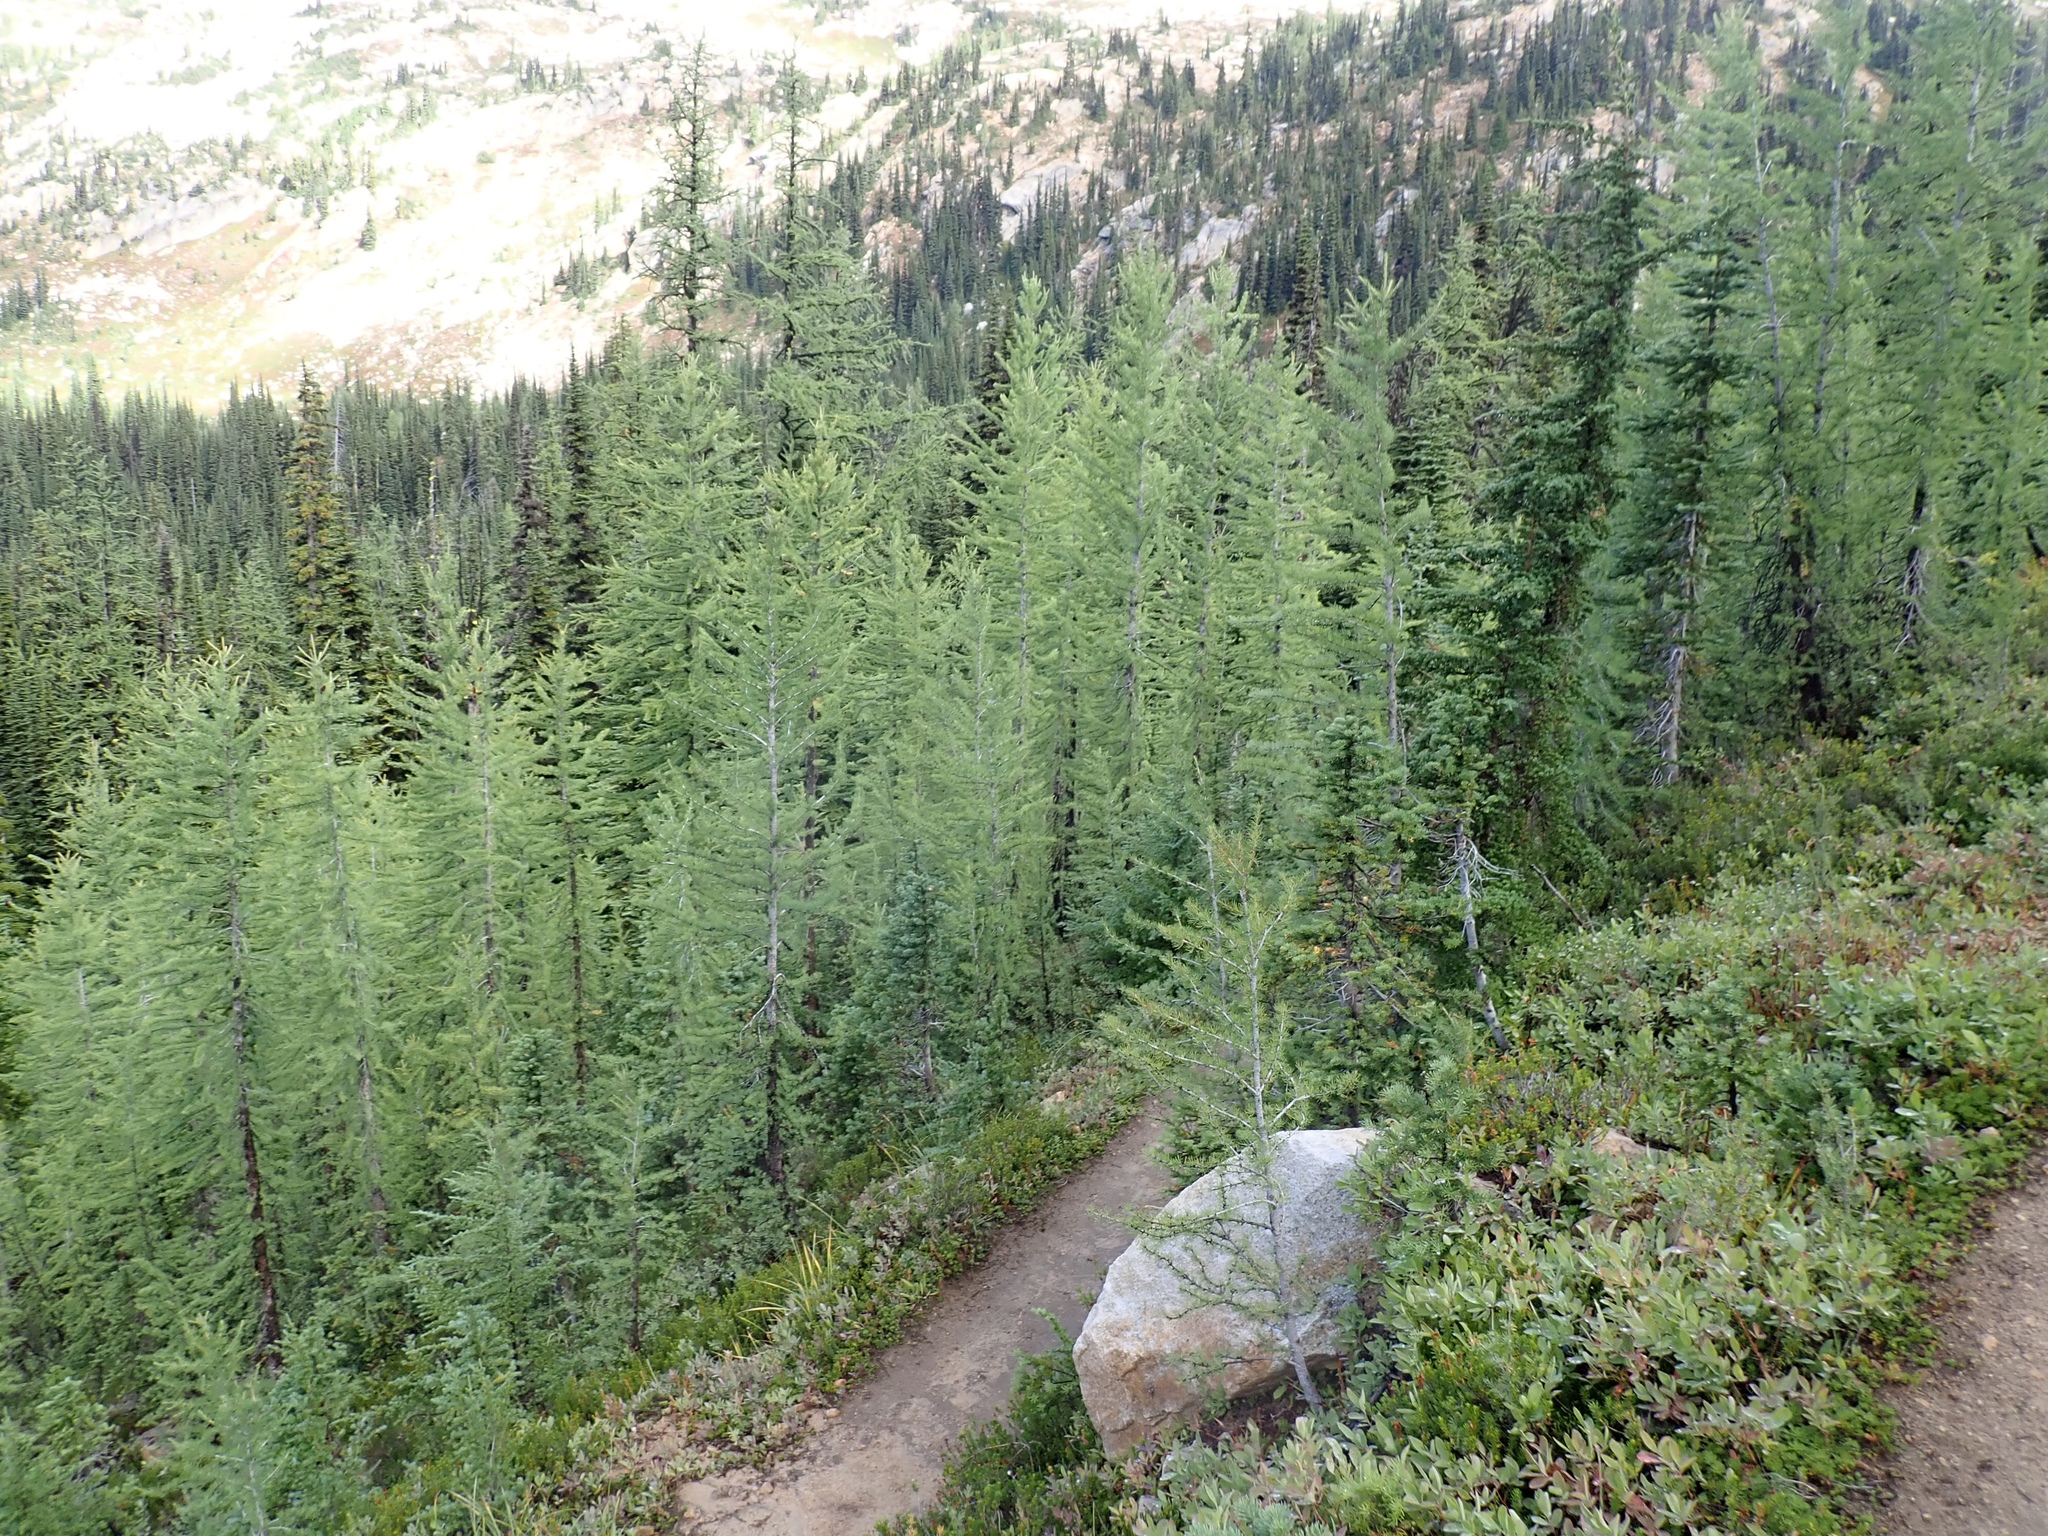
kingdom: Plantae
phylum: Tracheophyta
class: Pinopsida
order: Pinales
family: Pinaceae
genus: Larix
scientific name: Larix lyallii
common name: Alpine larch
